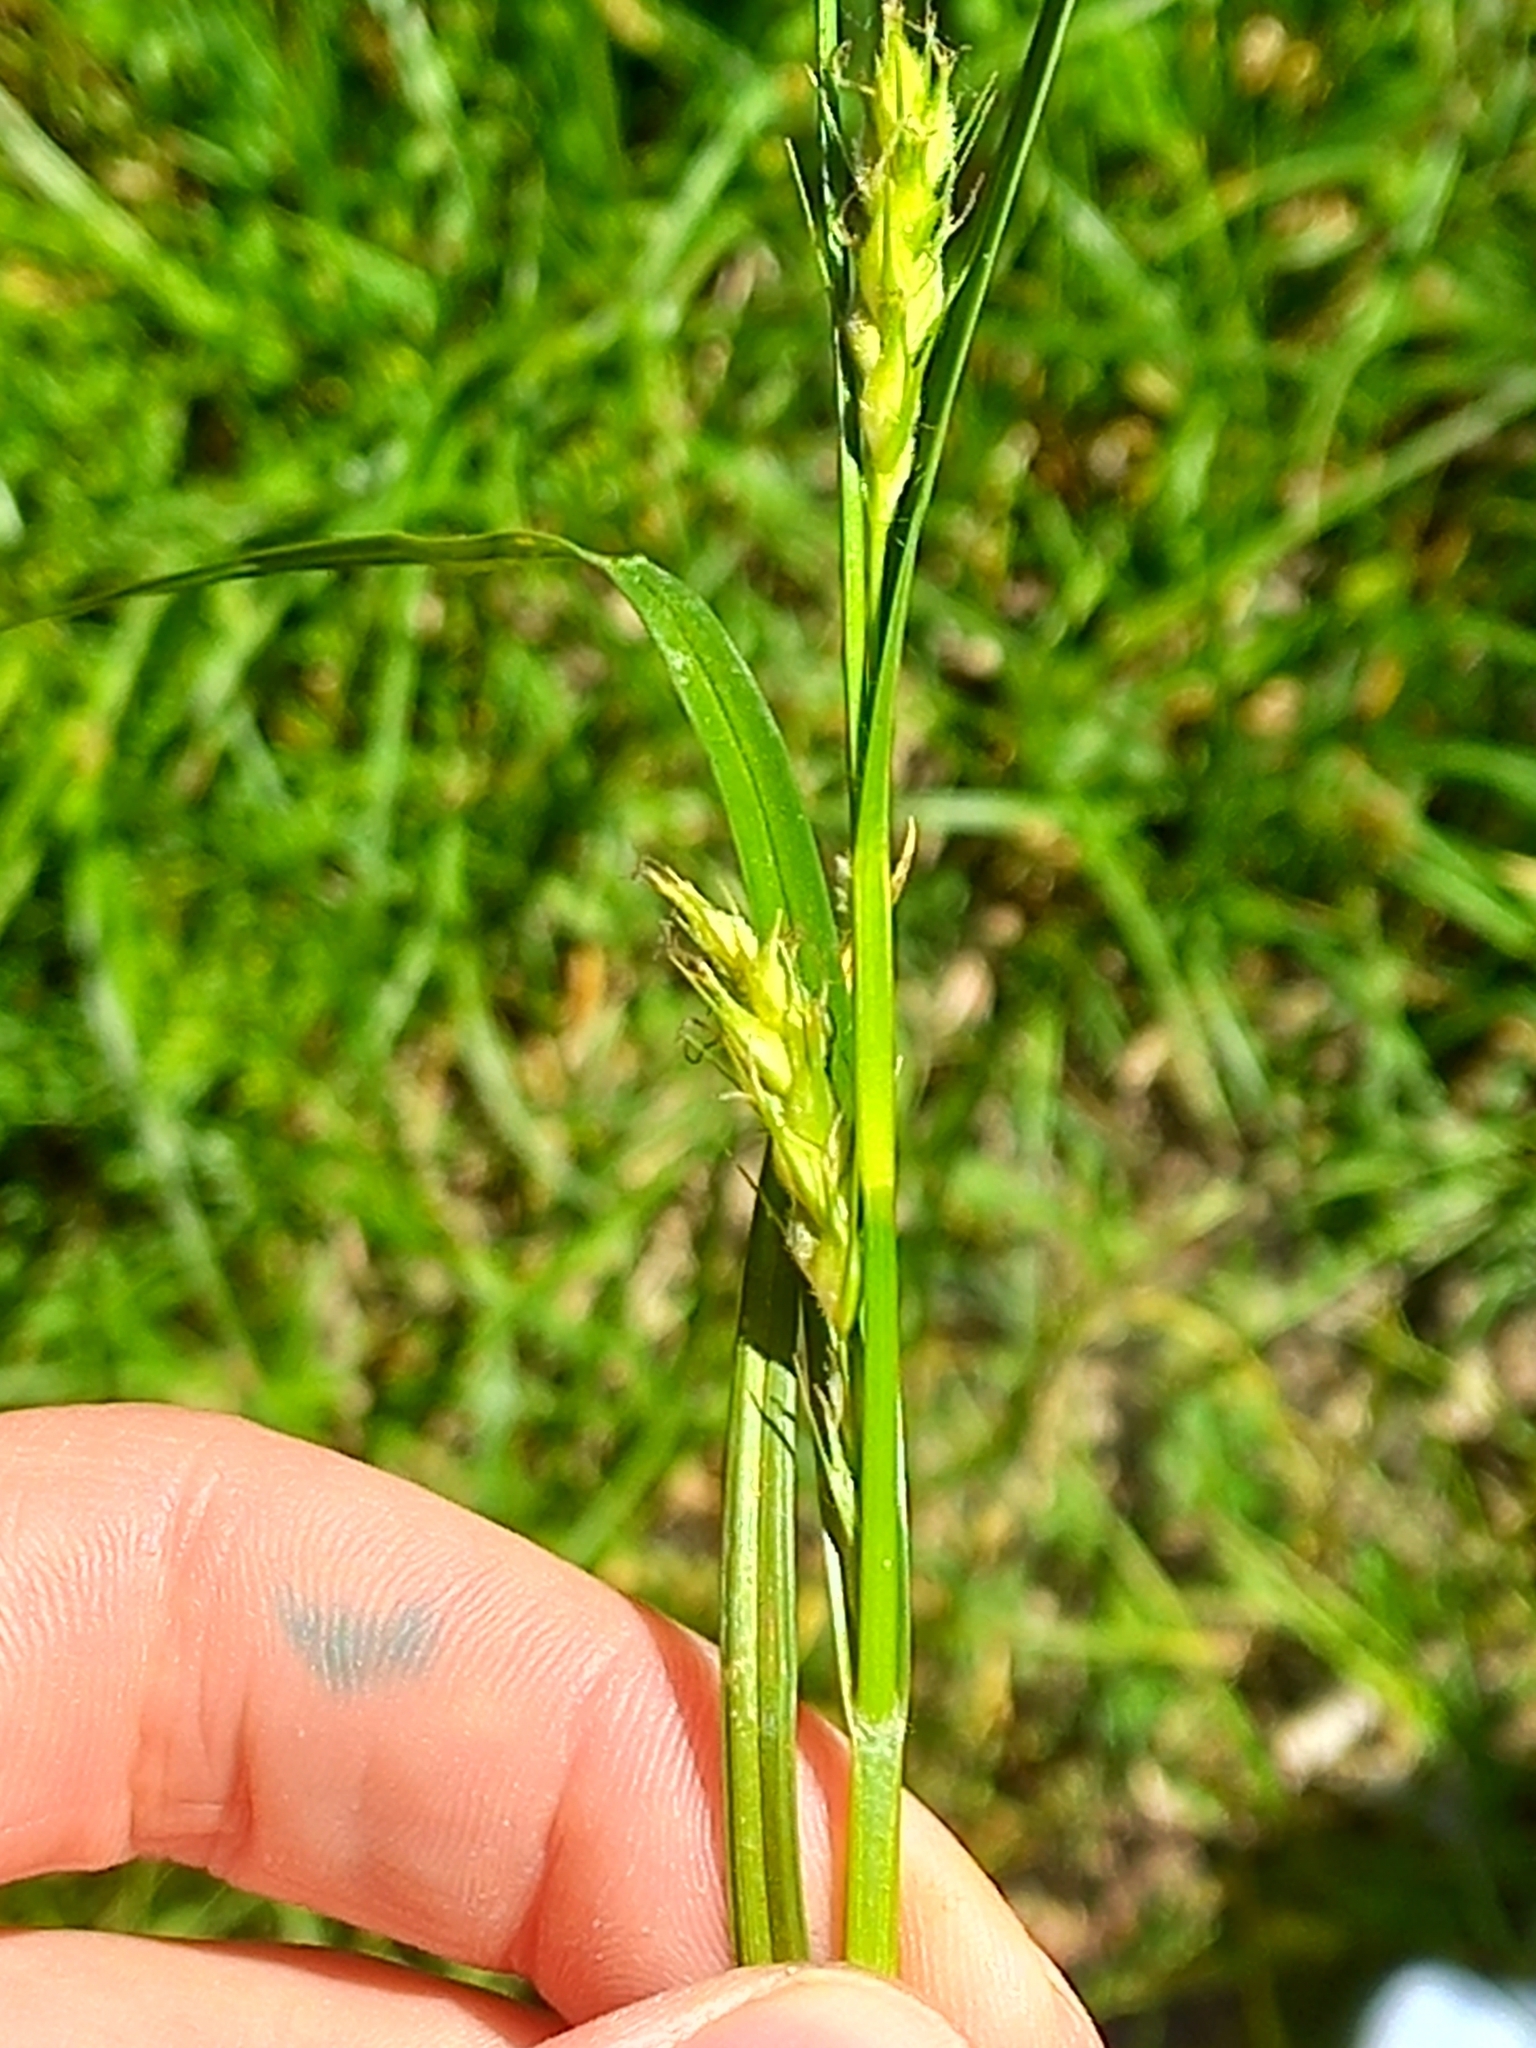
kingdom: Plantae
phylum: Tracheophyta
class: Liliopsida
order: Poales
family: Cyperaceae
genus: Carex
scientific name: Carex hirta
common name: Hairy sedge
